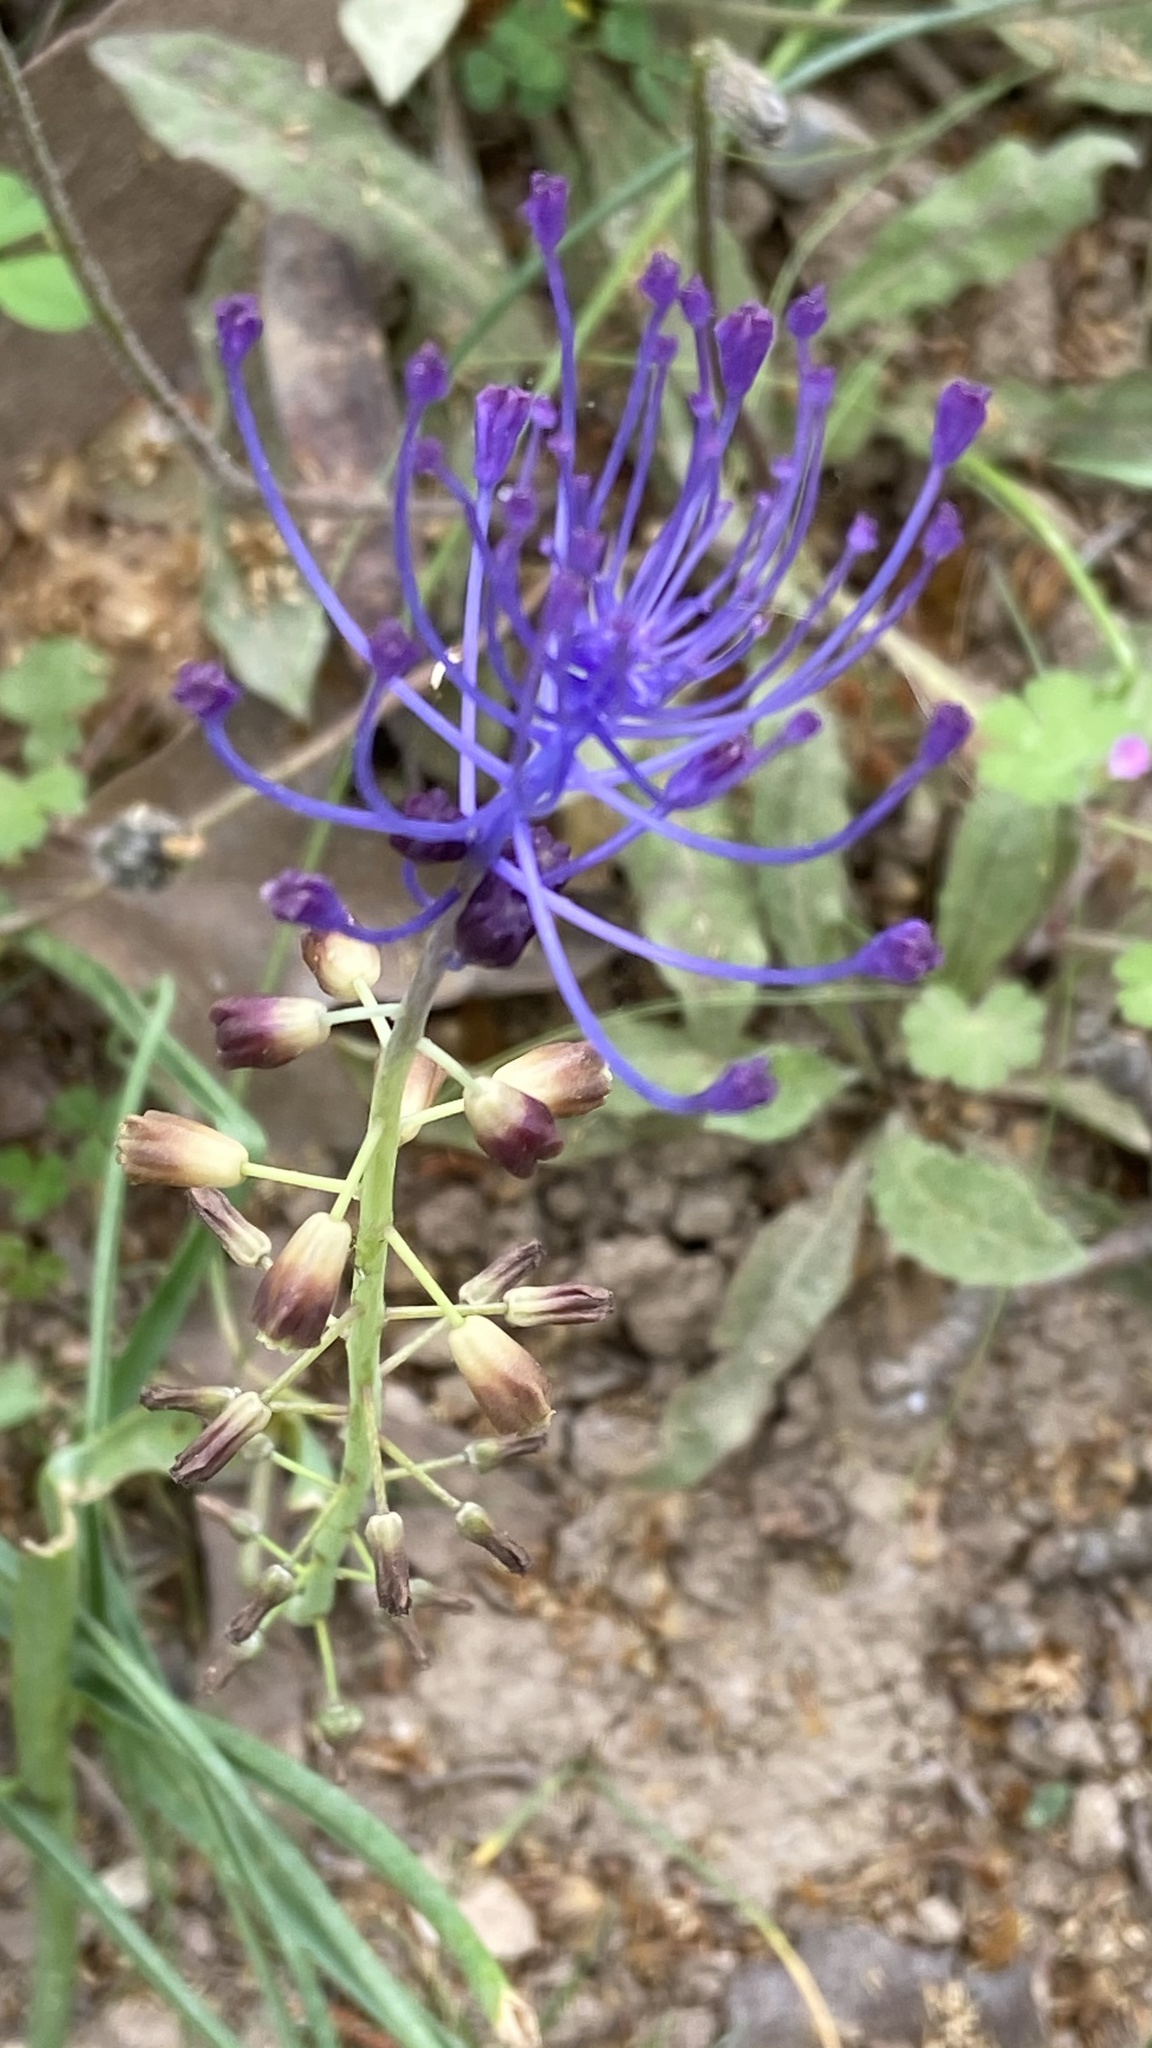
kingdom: Plantae
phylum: Tracheophyta
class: Liliopsida
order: Asparagales
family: Asparagaceae
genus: Muscari
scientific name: Muscari comosum
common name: Tassel hyacinth
